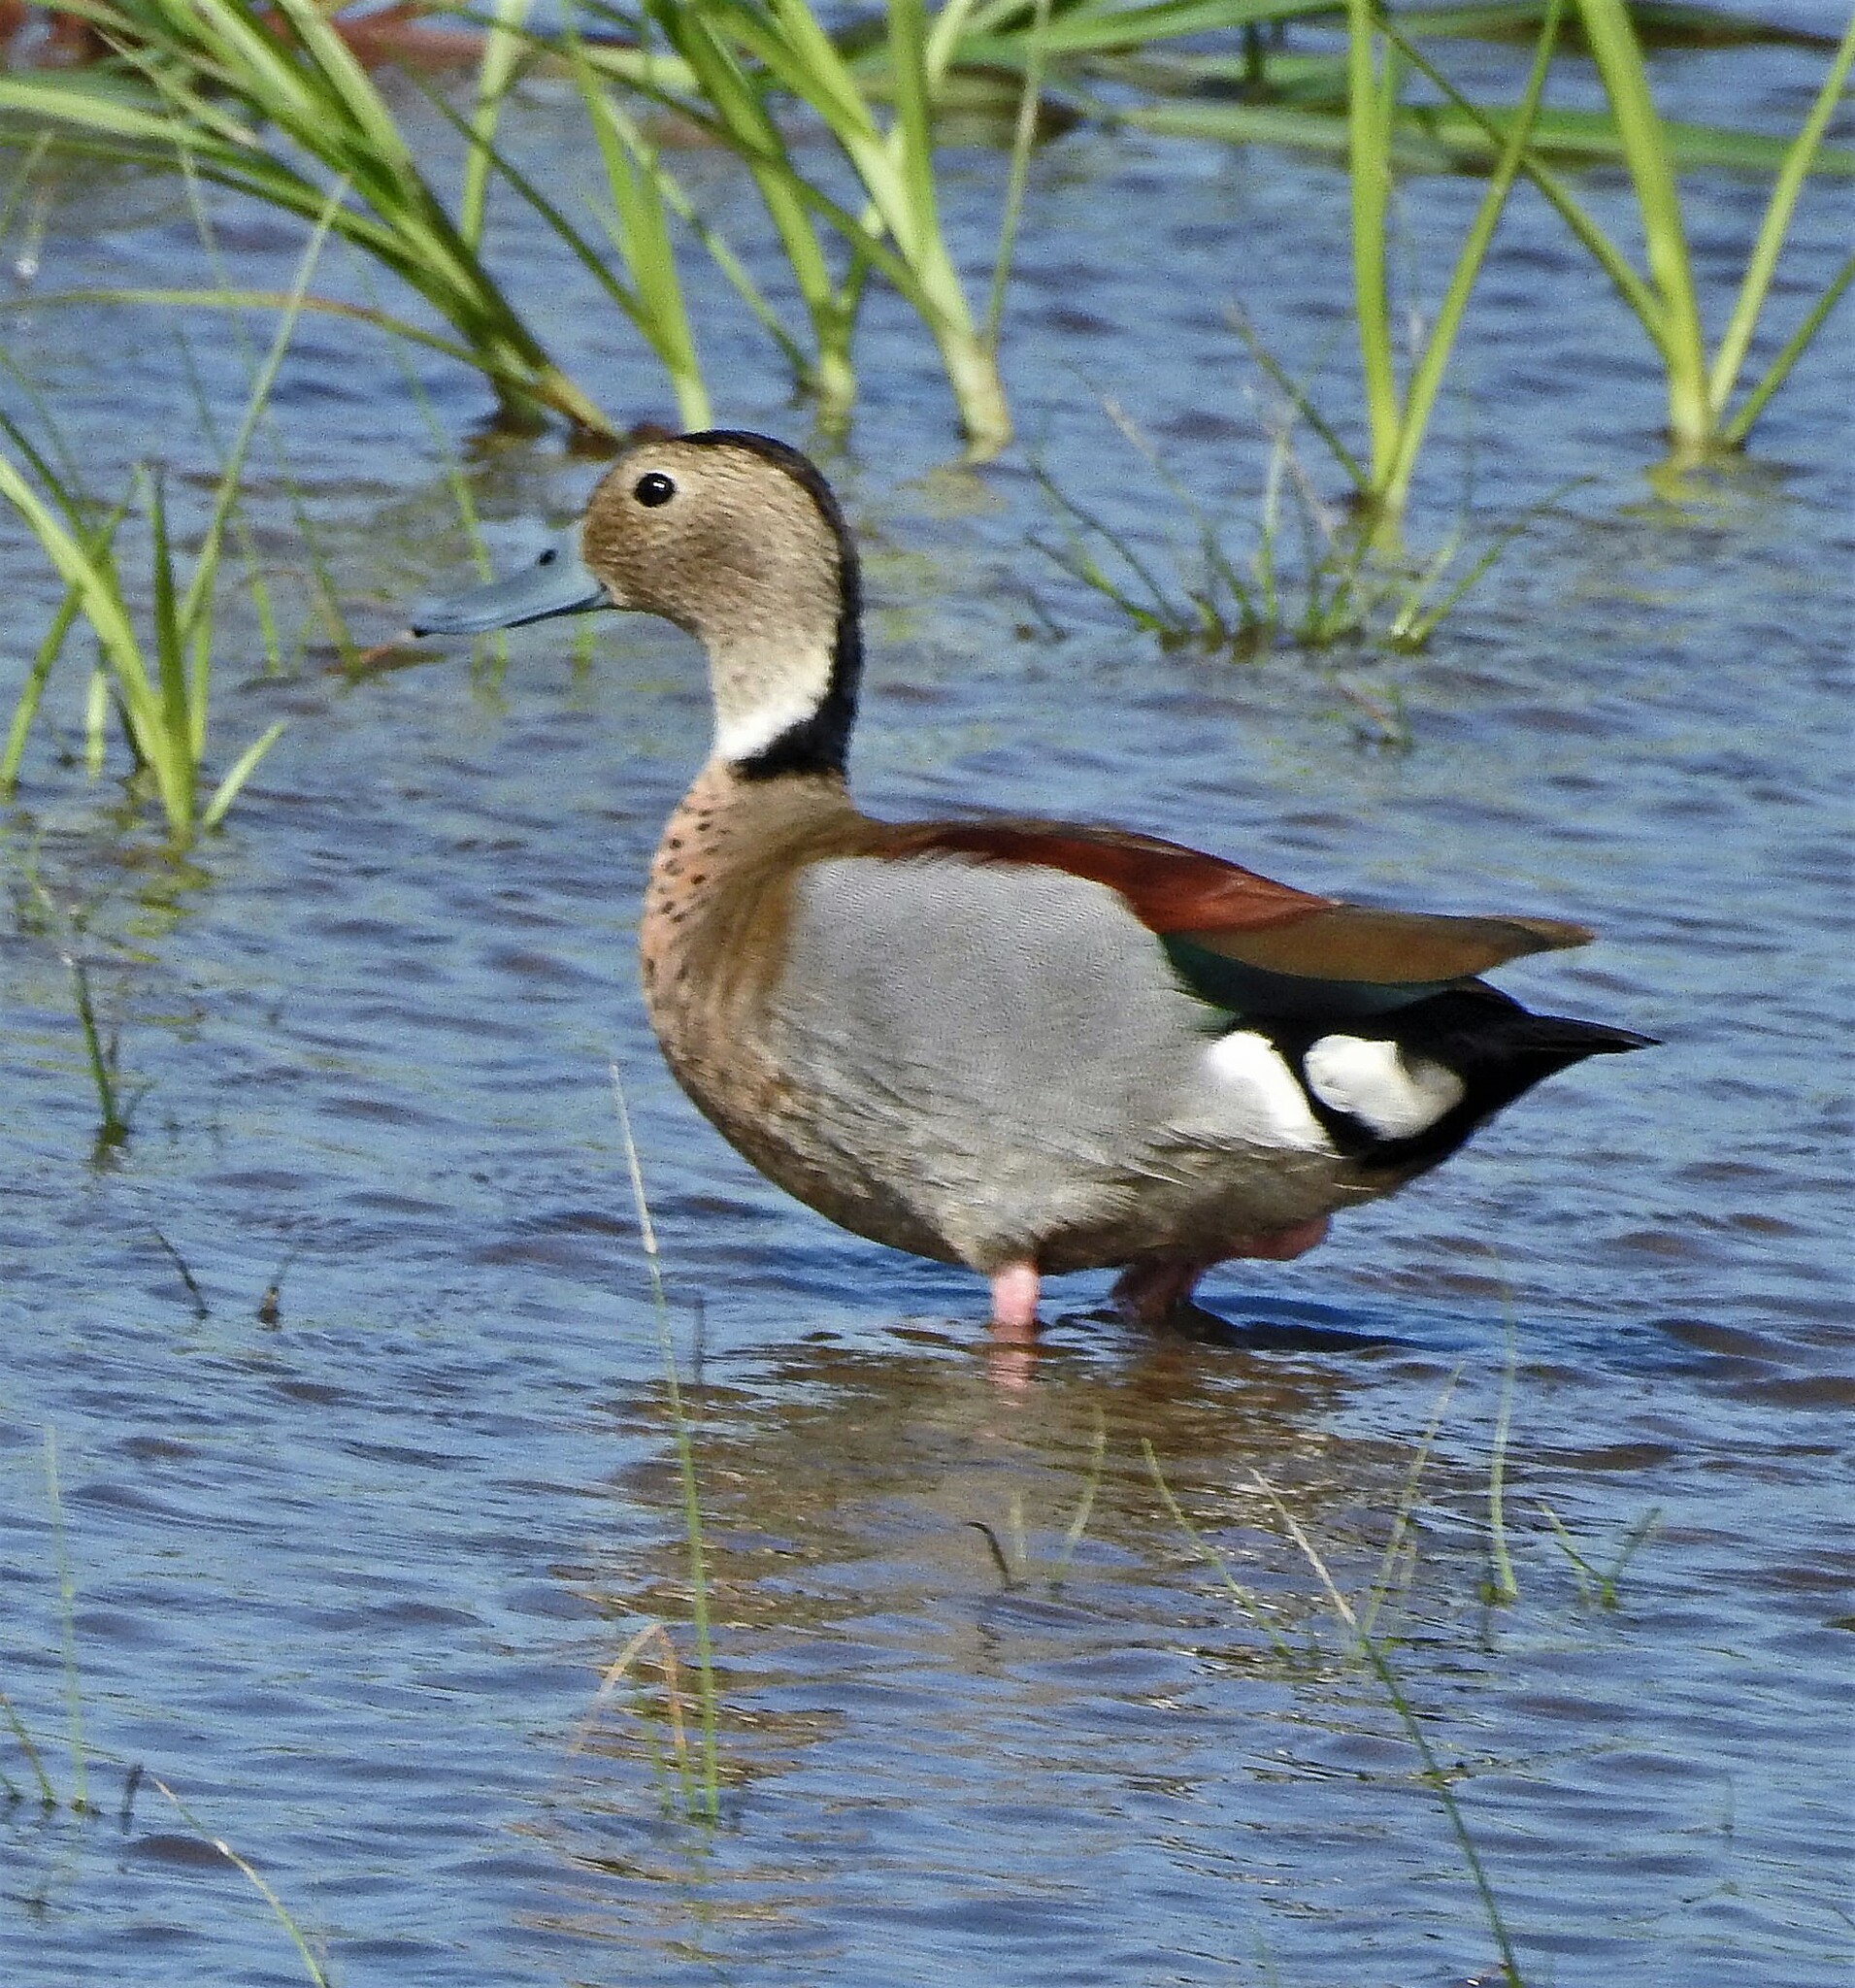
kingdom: Animalia
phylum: Chordata
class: Aves
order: Anseriformes
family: Anatidae
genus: Callonetta
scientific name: Callonetta leucophrys
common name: Ringed teal
